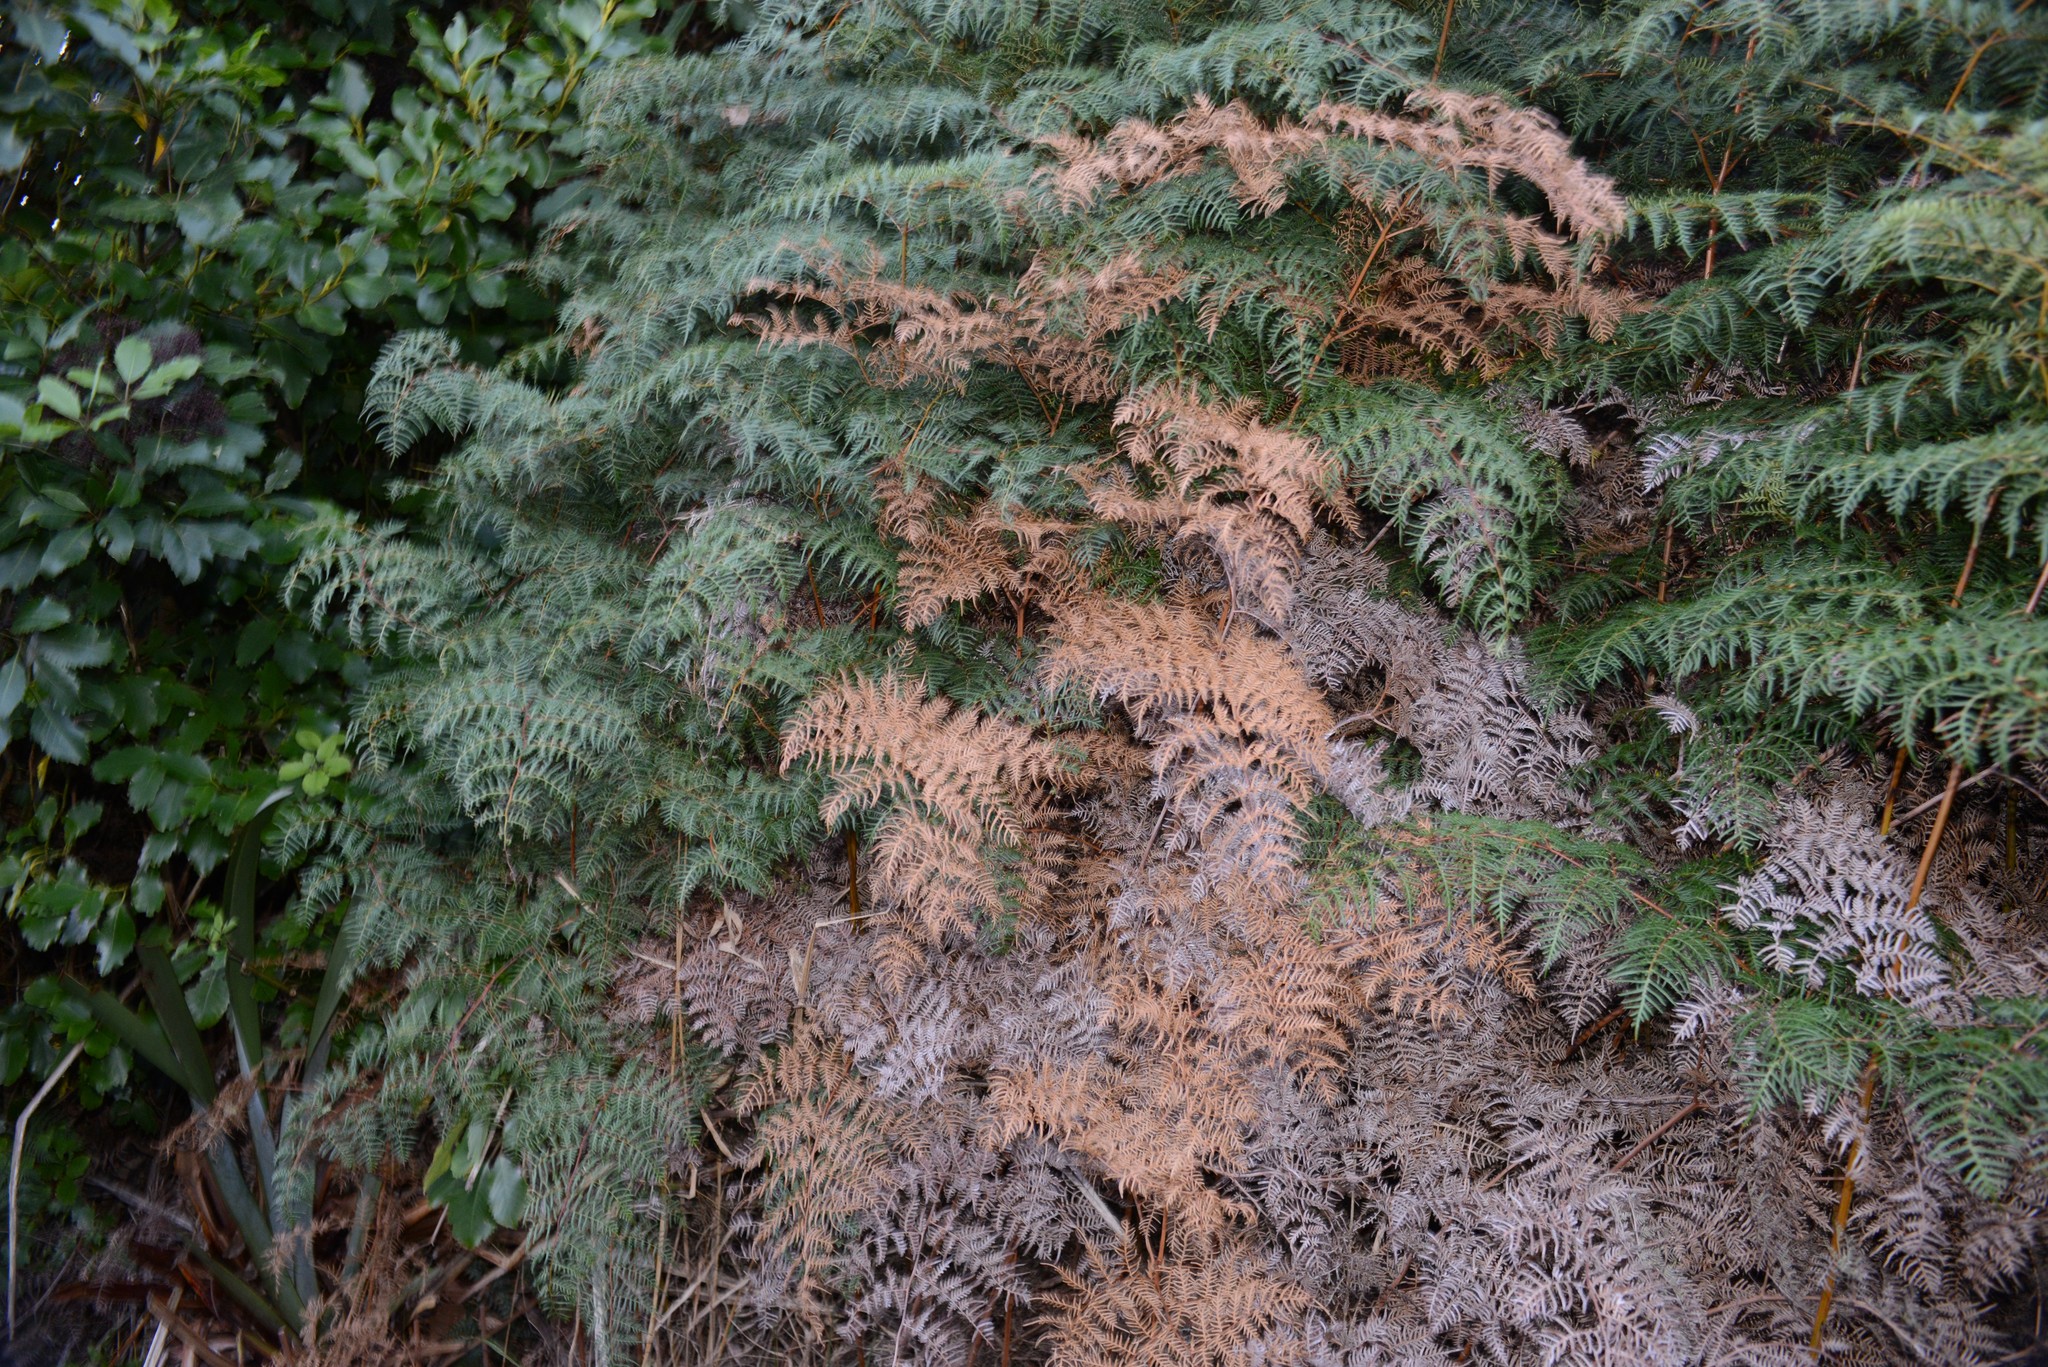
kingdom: Plantae
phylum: Tracheophyta
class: Polypodiopsida
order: Polypodiales
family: Dennstaedtiaceae
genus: Pteridium
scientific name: Pteridium esculentum
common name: Bracken fern
